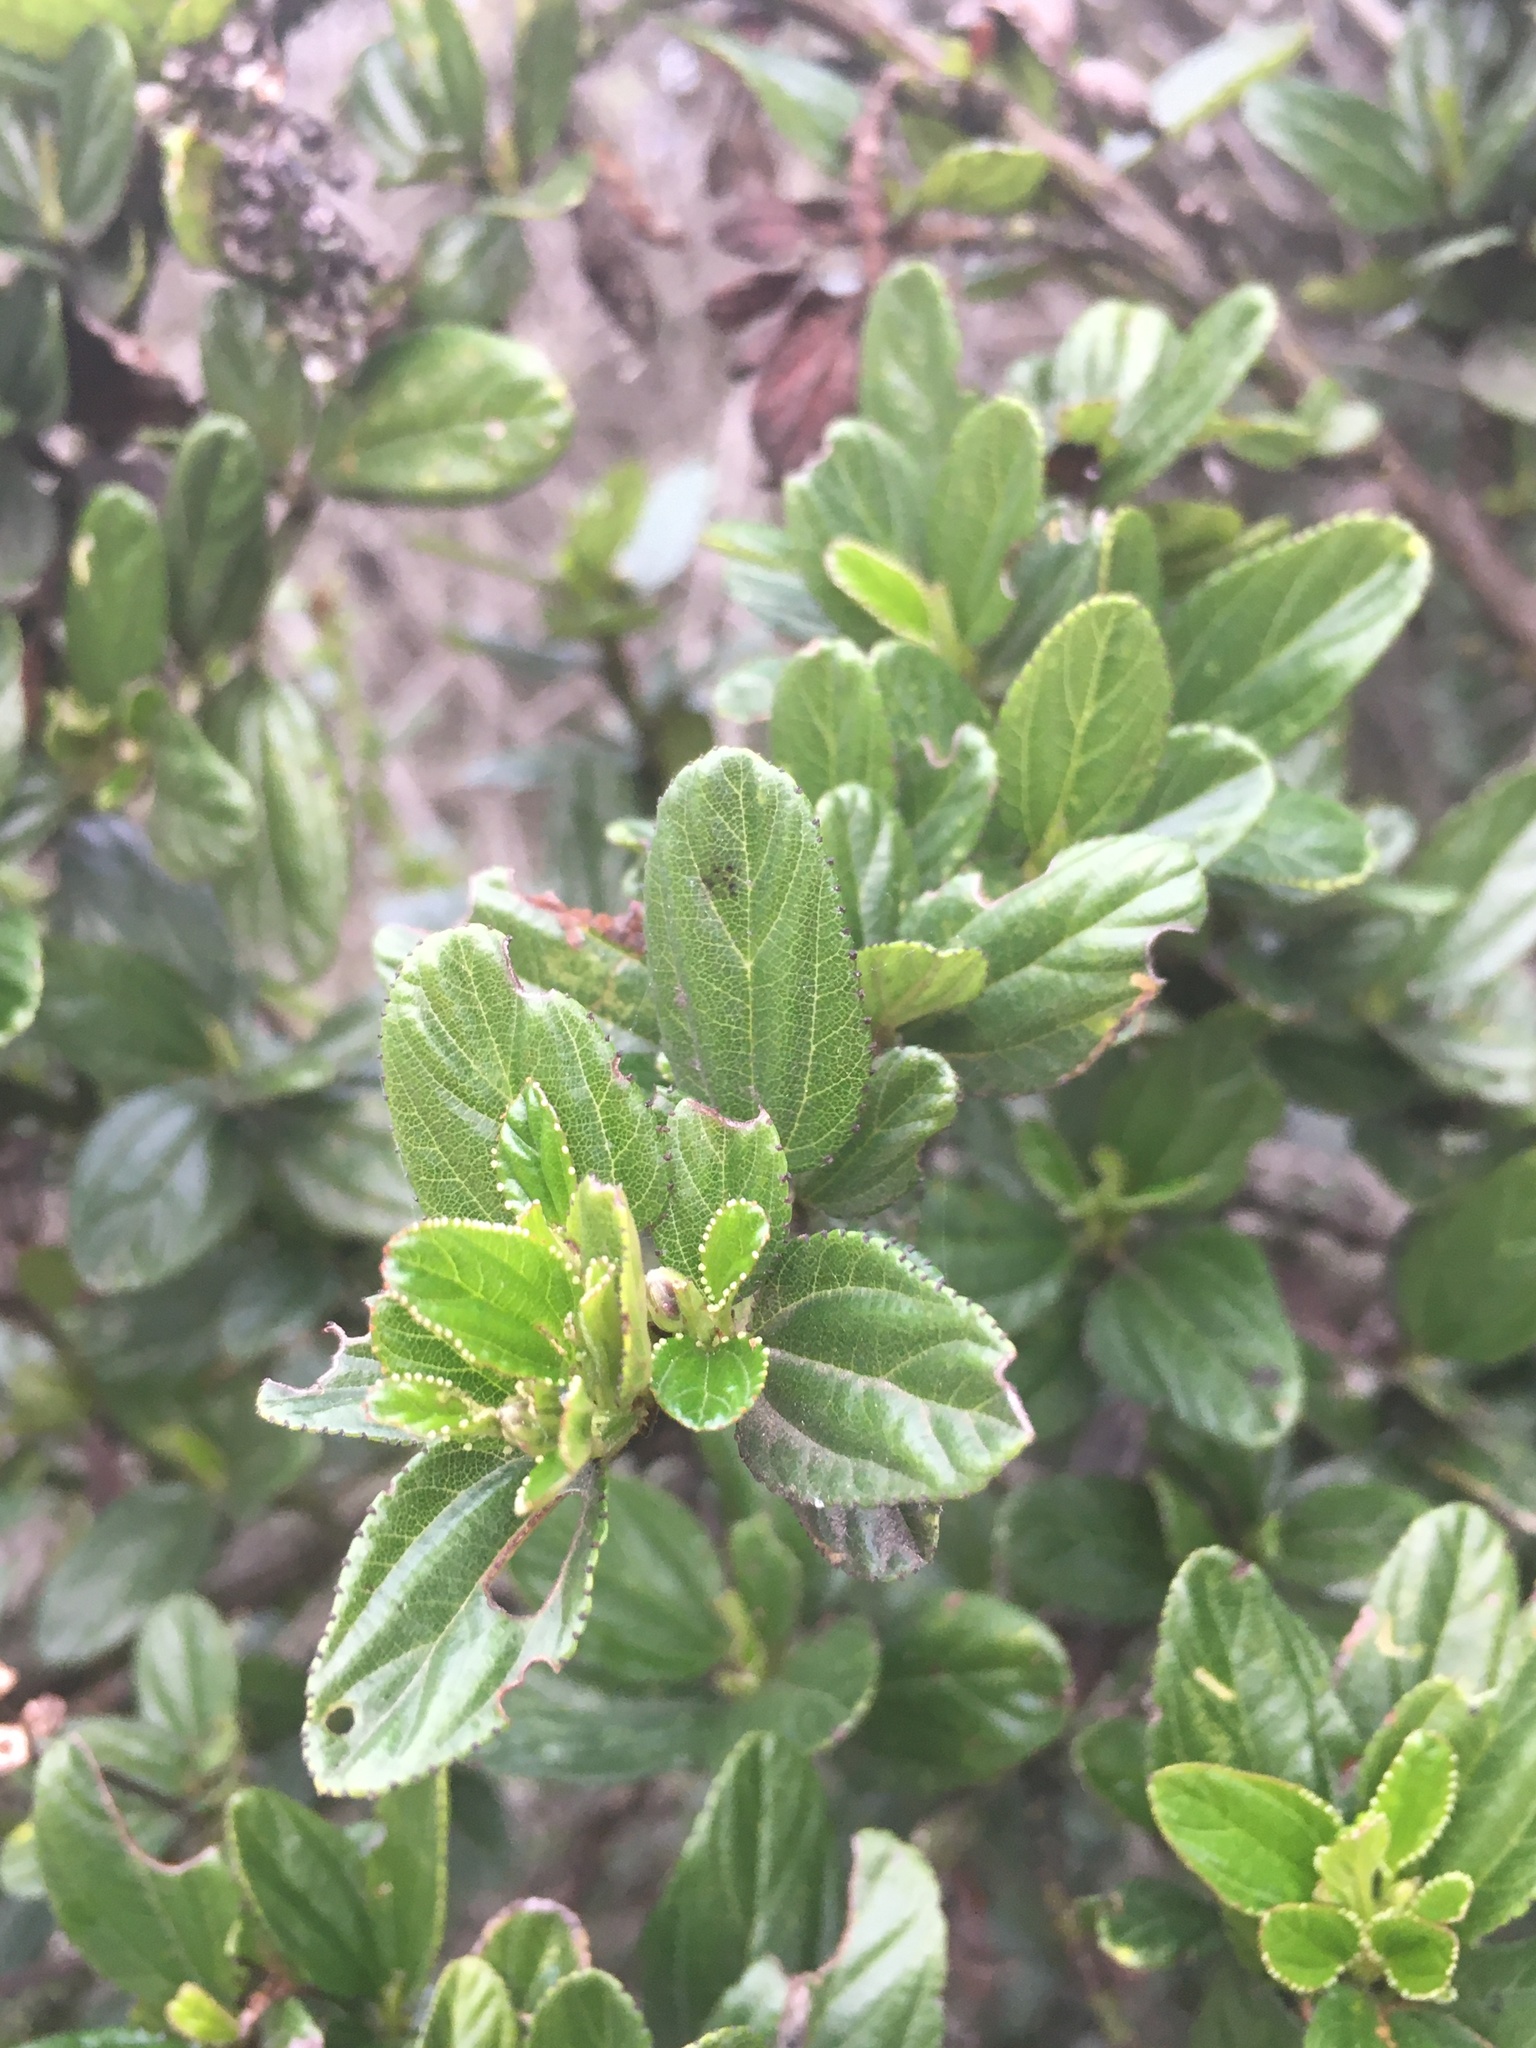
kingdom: Plantae
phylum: Tracheophyta
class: Magnoliopsida
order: Rosales
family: Rhamnaceae
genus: Ceanothus
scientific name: Ceanothus thyrsiflorus
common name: California-lilac
